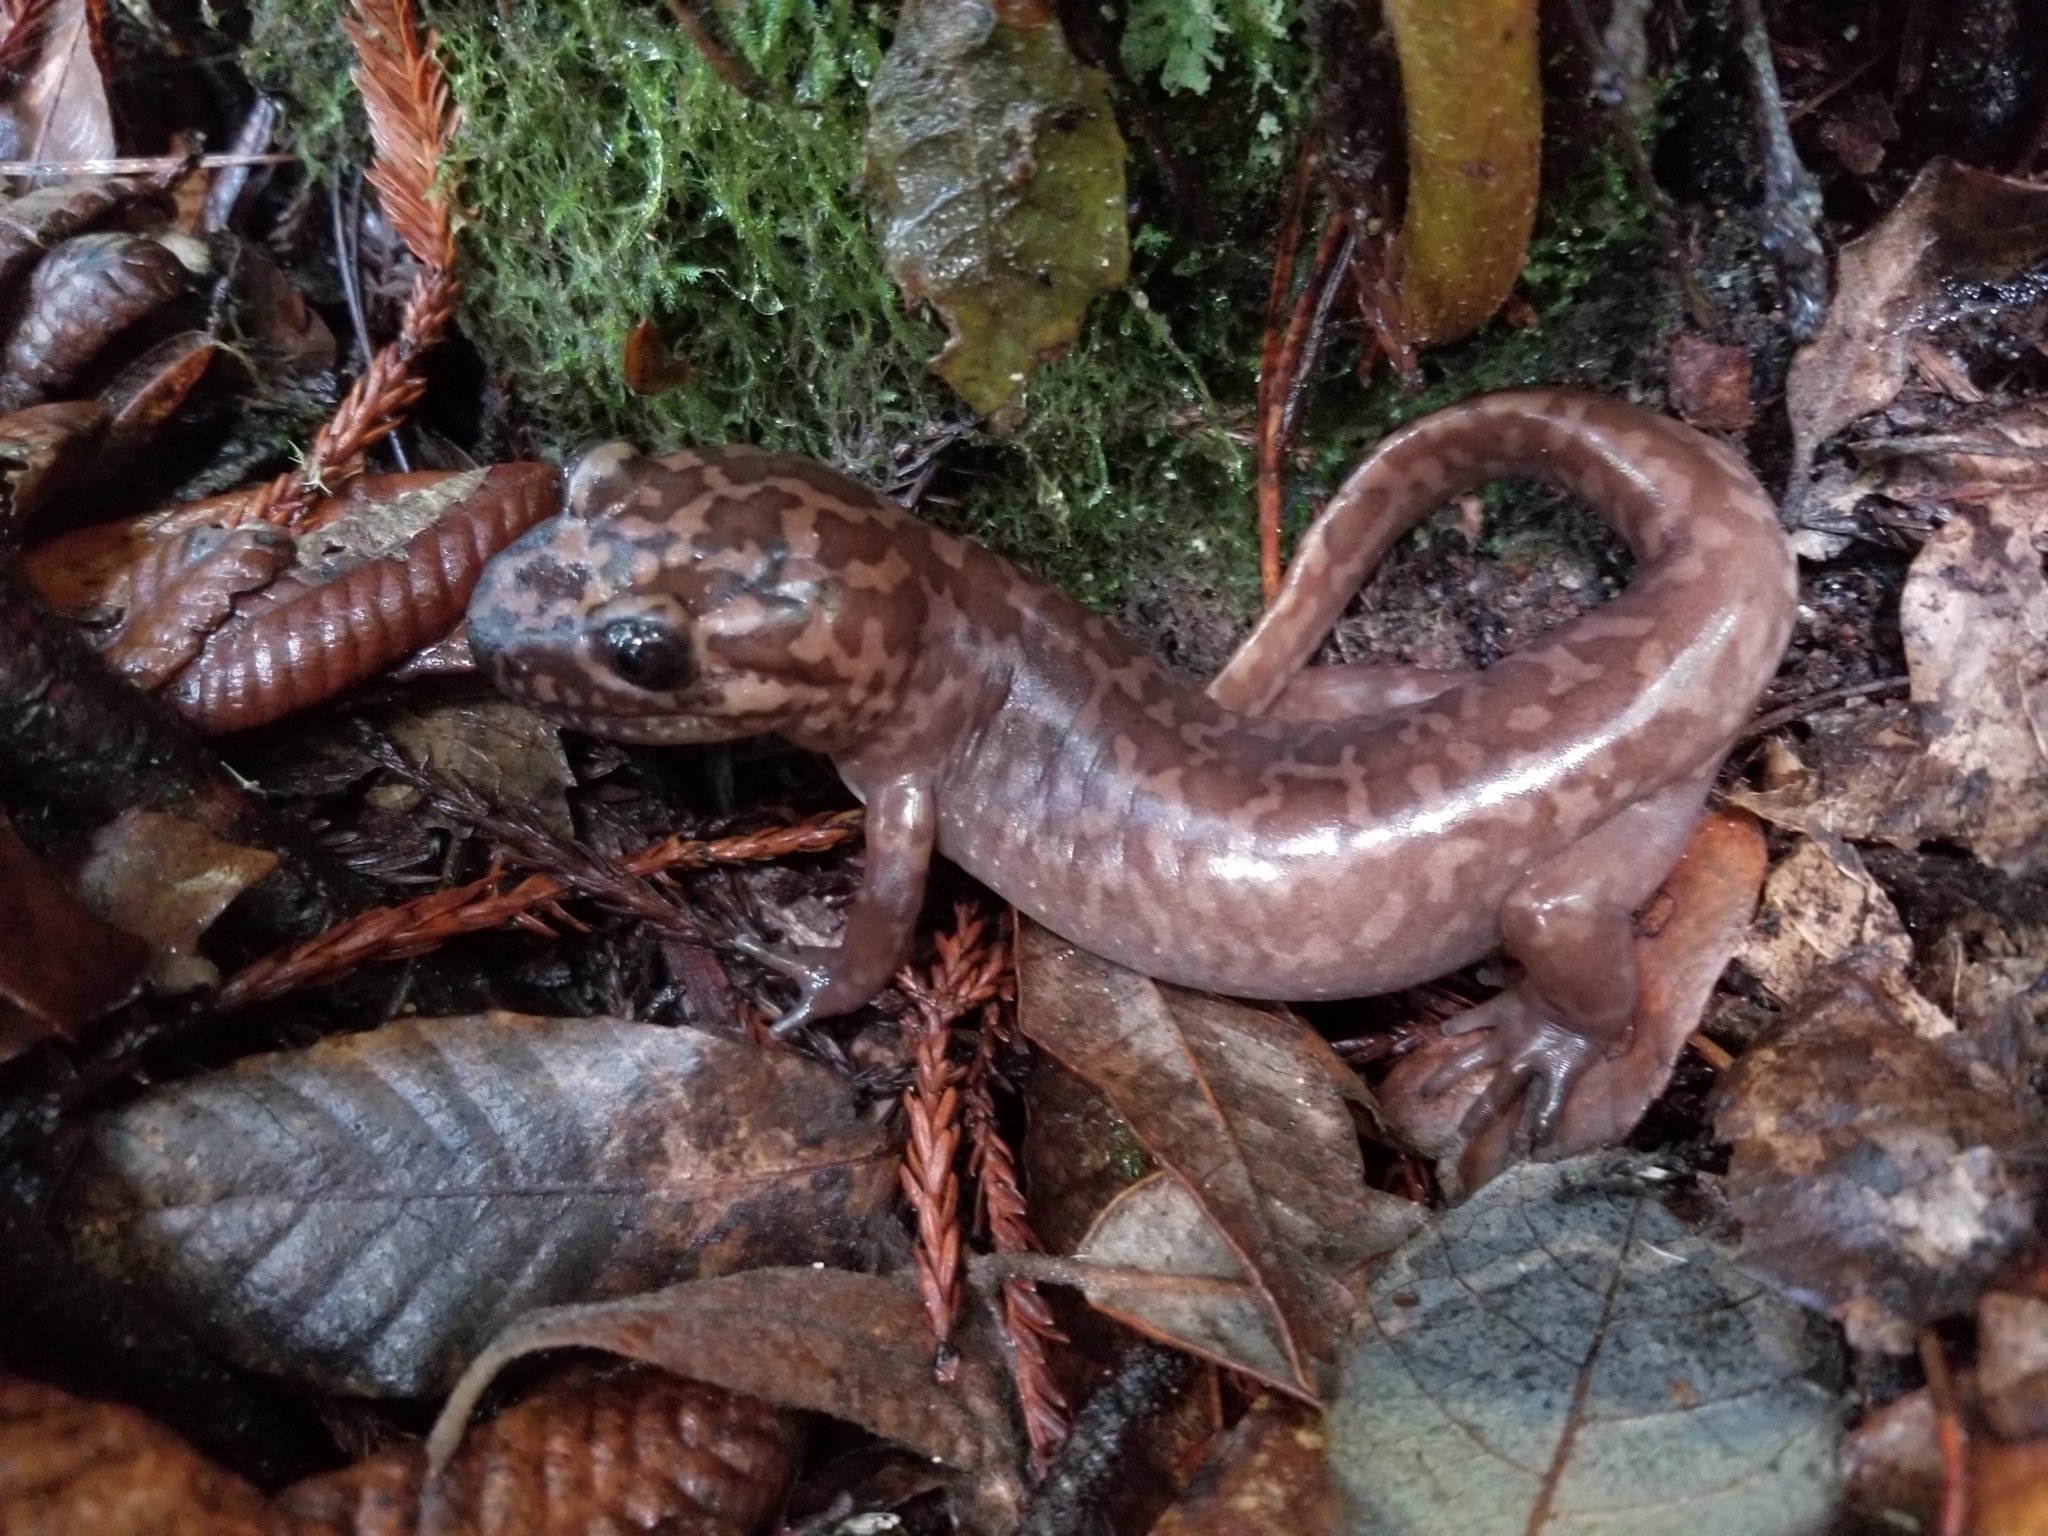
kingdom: Animalia
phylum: Chordata
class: Amphibia
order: Caudata
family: Ambystomatidae
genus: Dicamptodon
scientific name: Dicamptodon ensatus
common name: California giant salamander
